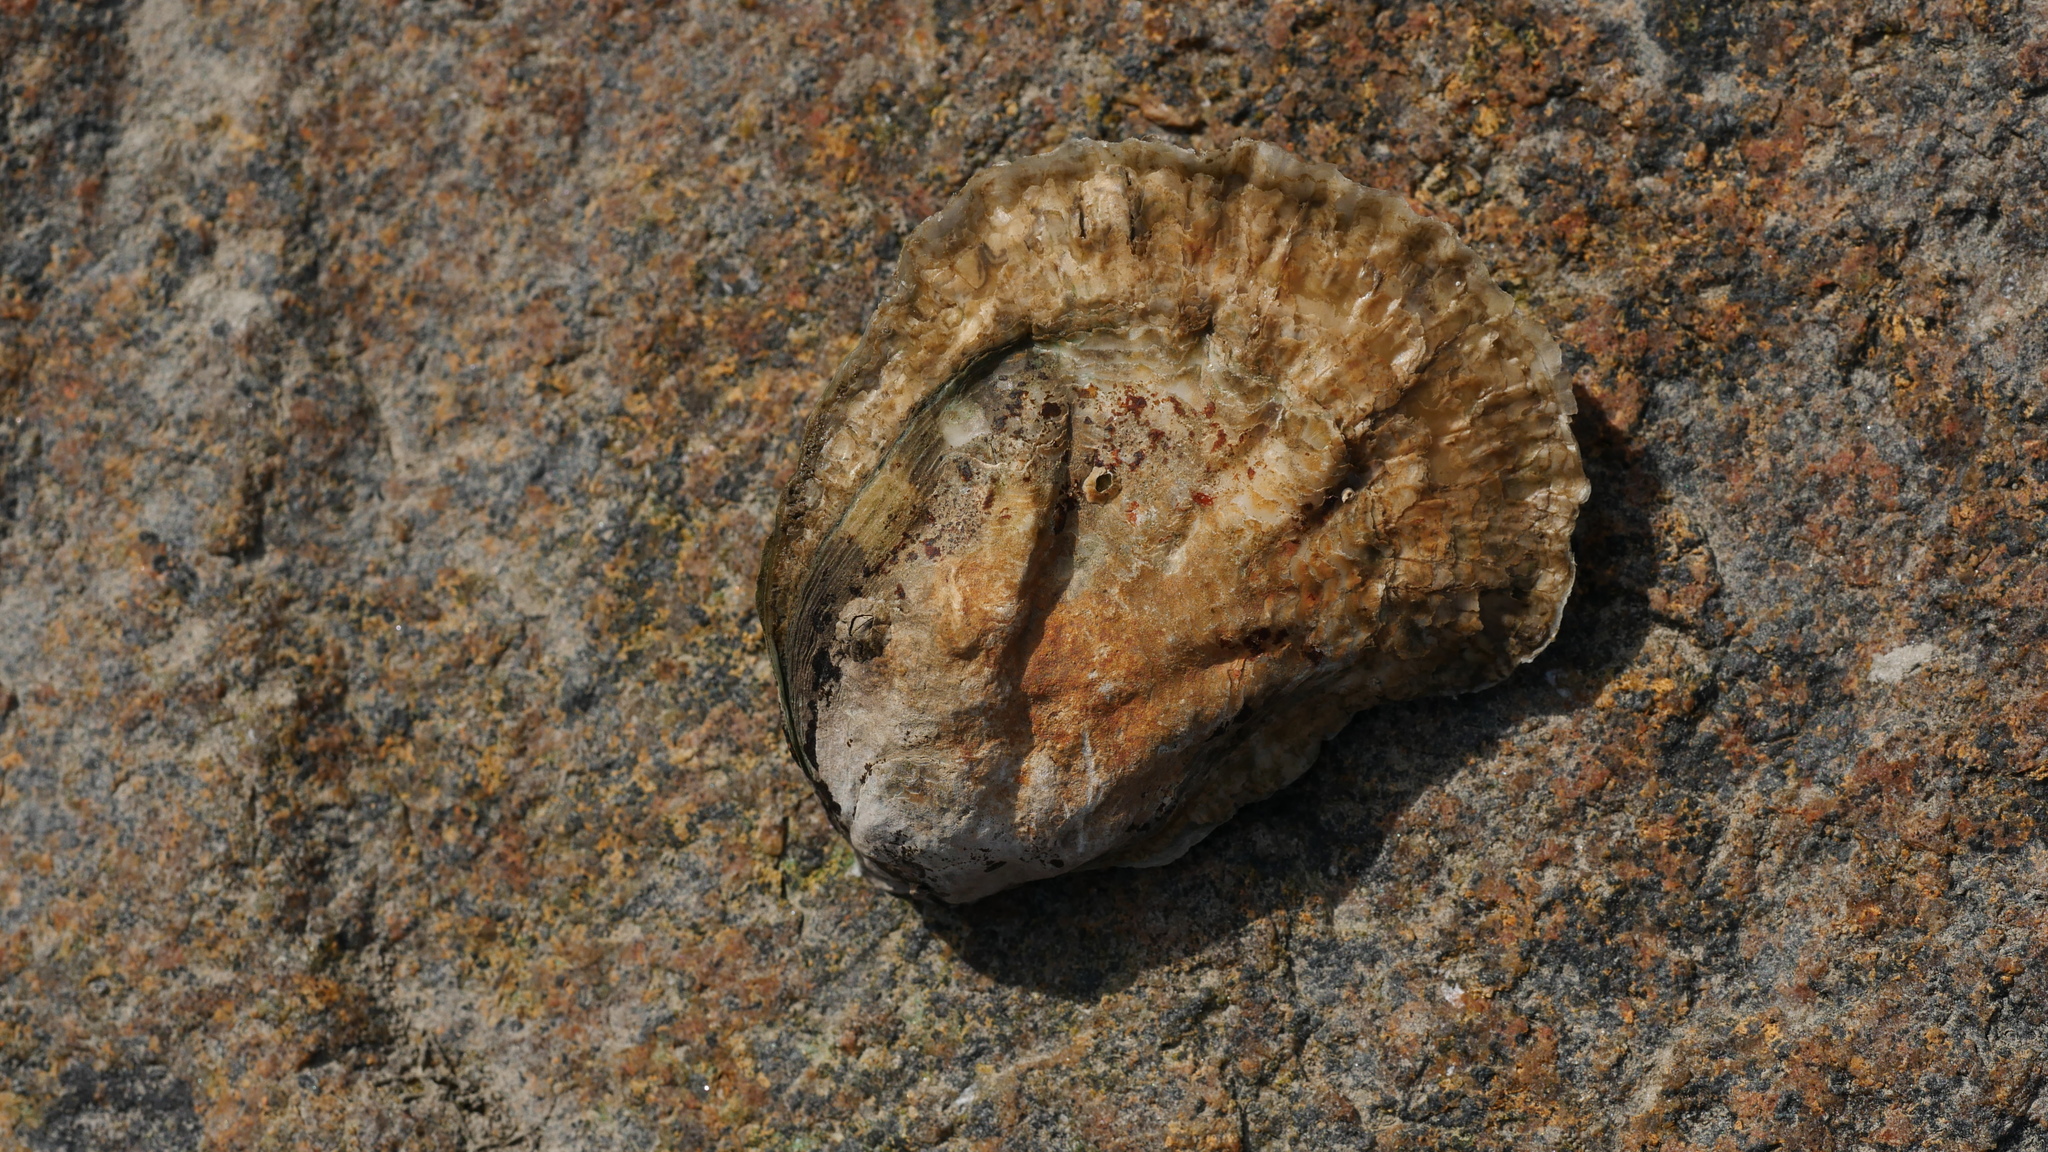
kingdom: Animalia
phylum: Mollusca
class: Bivalvia
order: Ostreida
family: Ostreidae
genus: Crassostrea
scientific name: Crassostrea virginica
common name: American oyster
